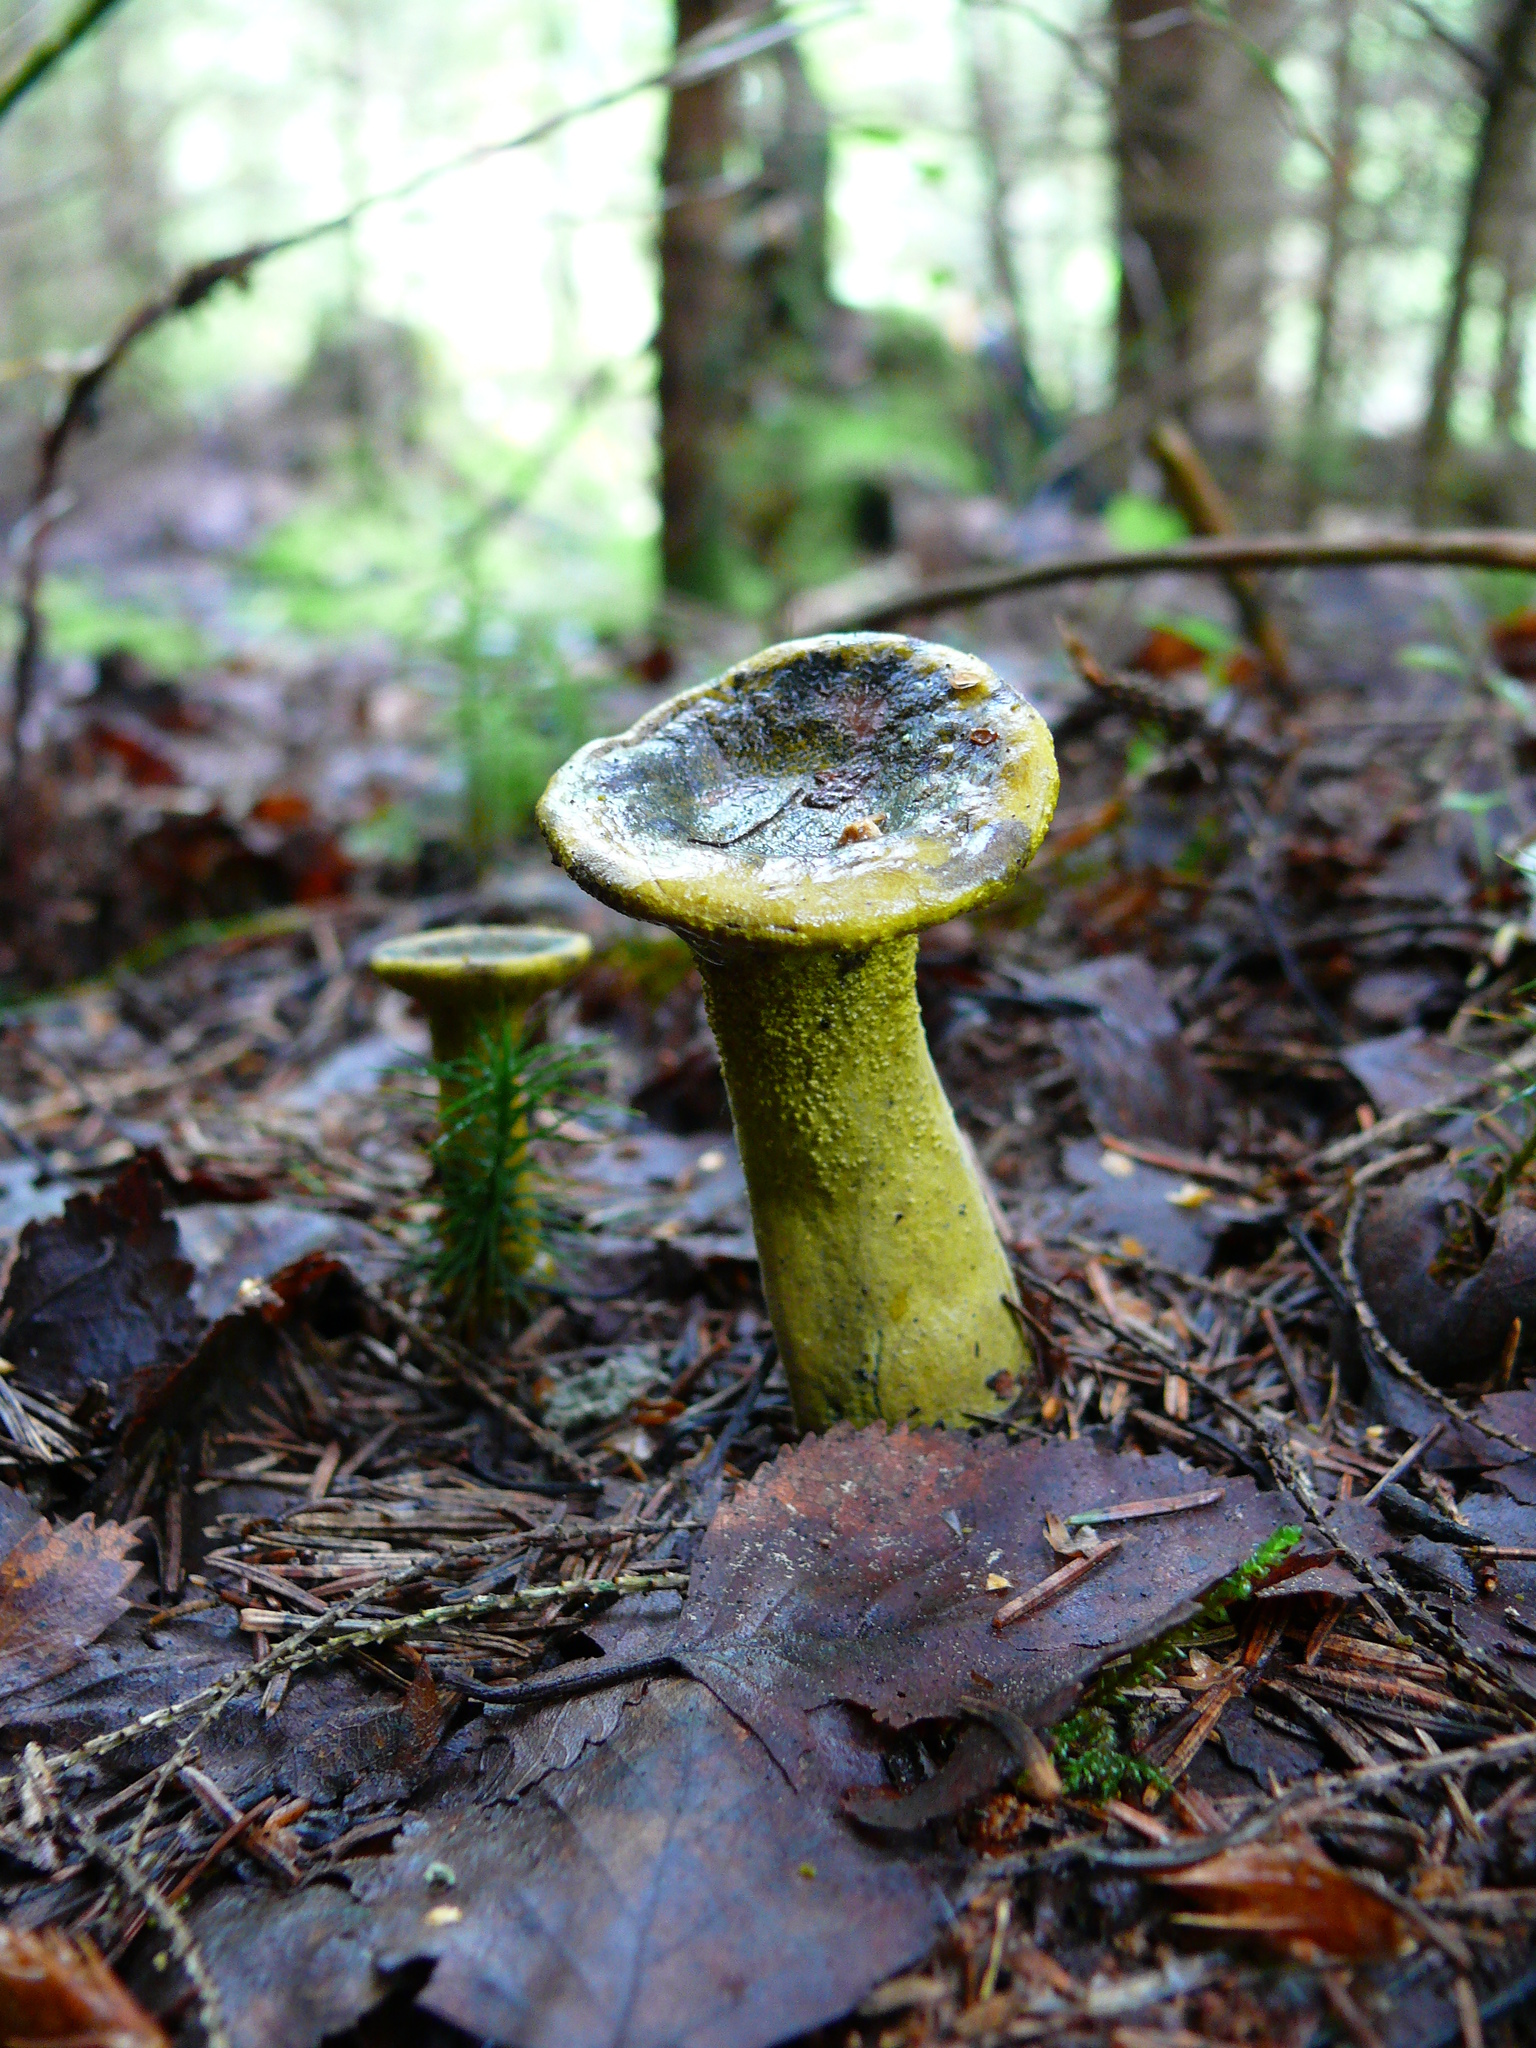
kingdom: Fungi
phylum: Ascomycota
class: Sordariomycetes
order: Hypocreales
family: Hypocreaceae
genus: Hypomyces
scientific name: Hypomyces luteovirens
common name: Yellow-green russula mold
